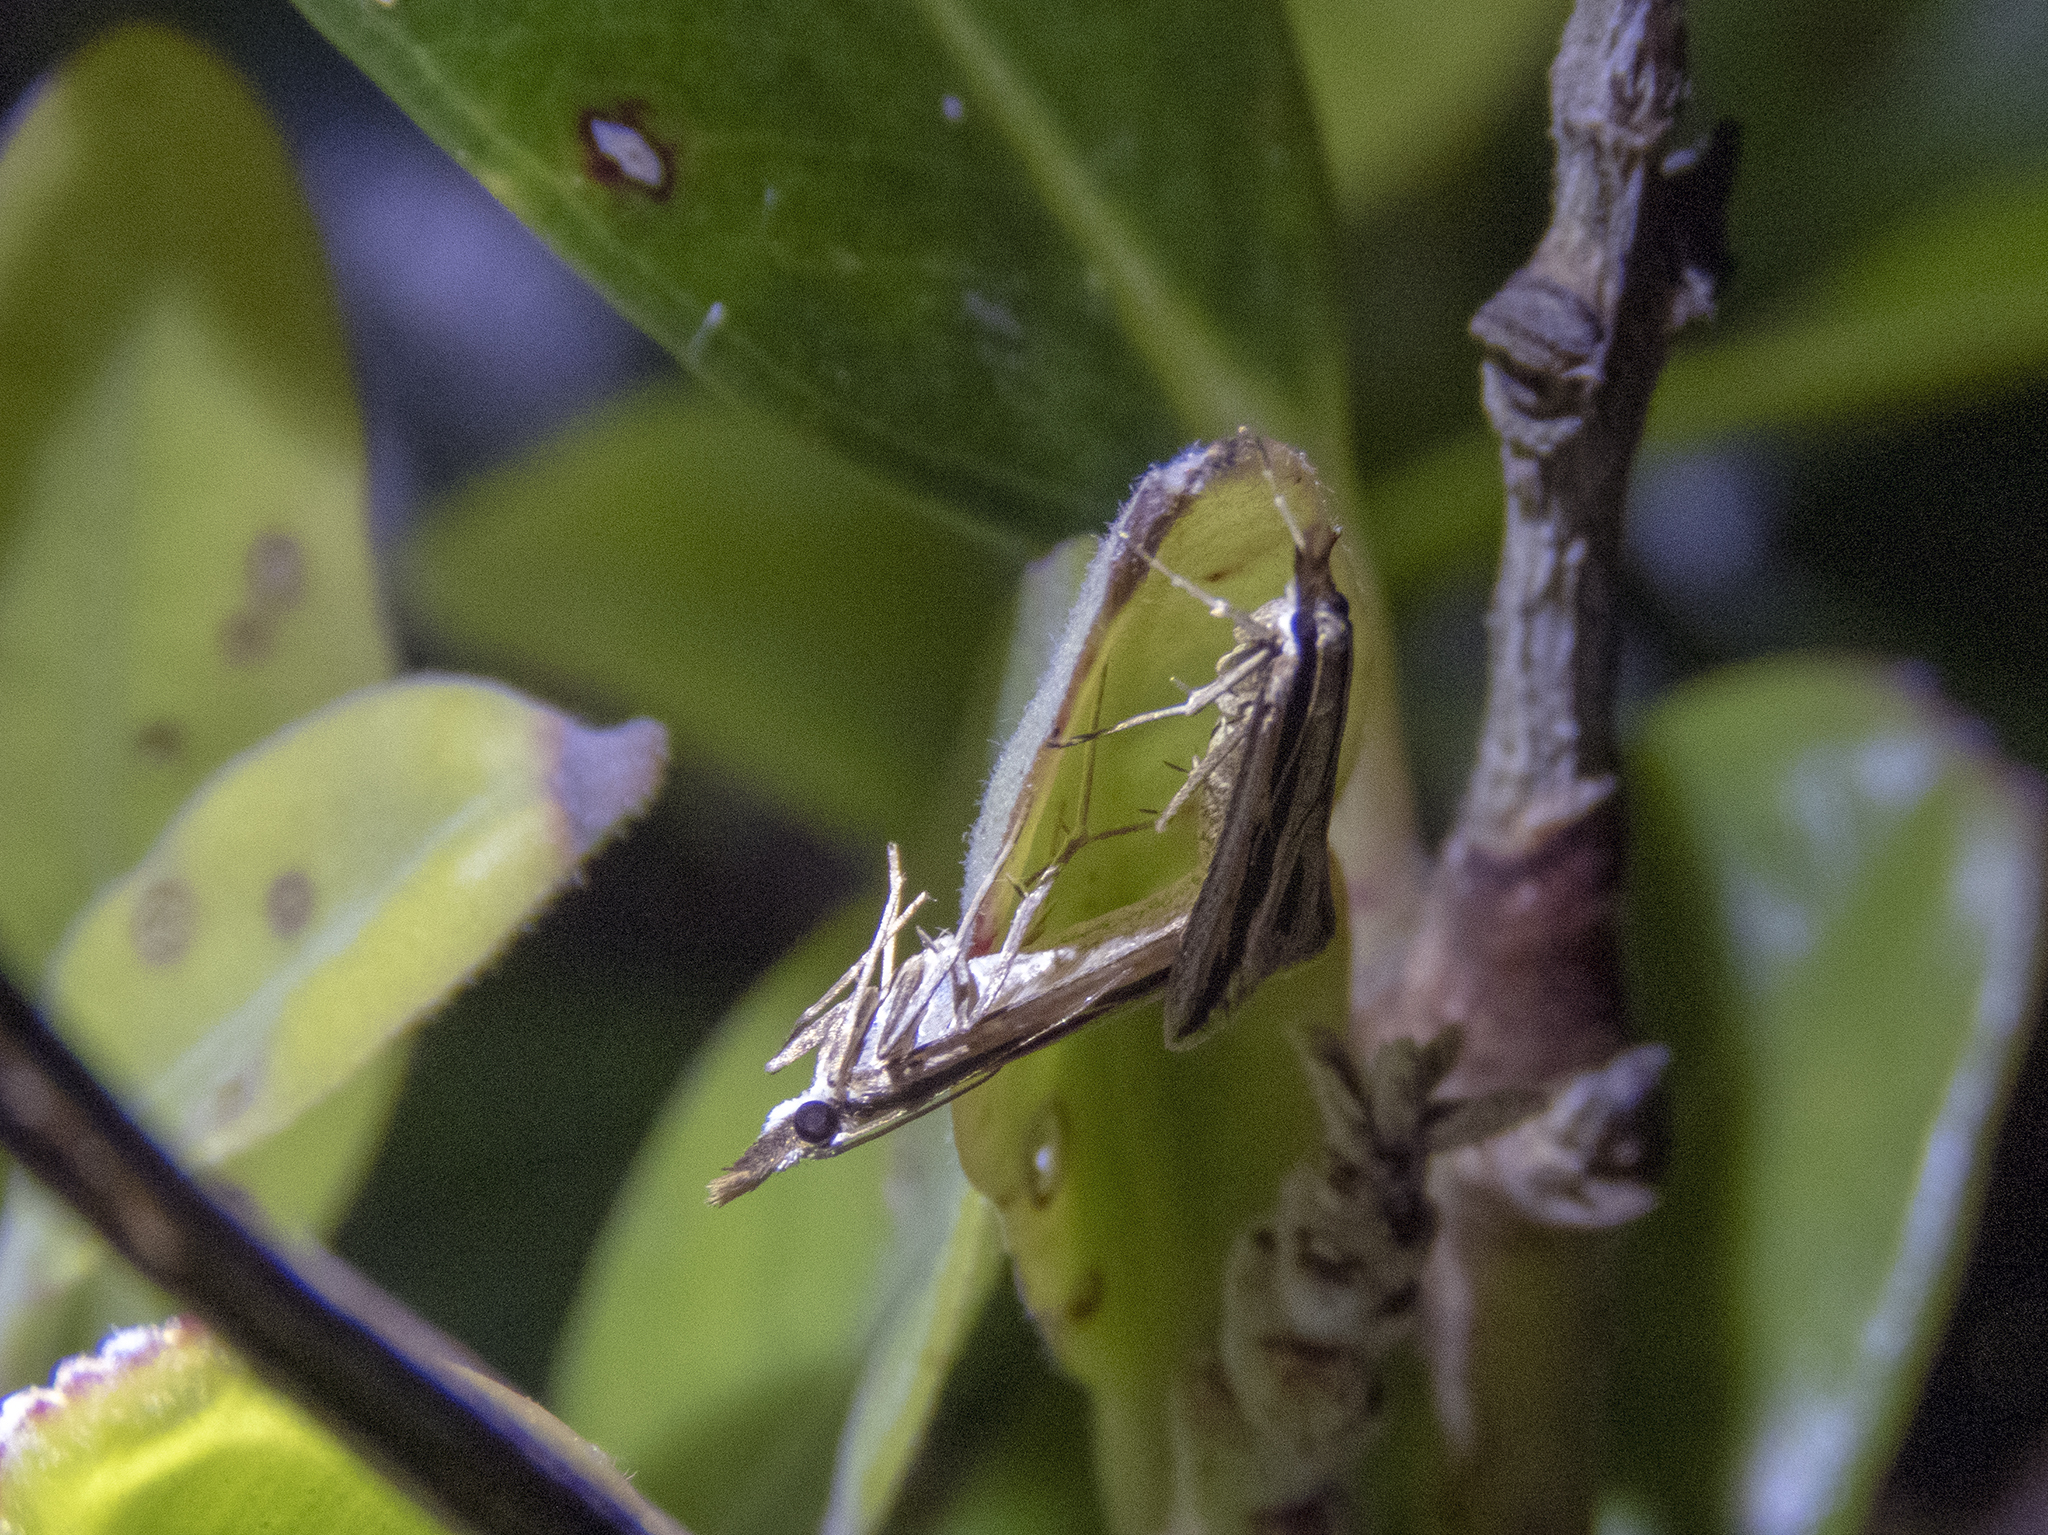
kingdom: Animalia
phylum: Arthropoda
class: Insecta
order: Lepidoptera
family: Crambidae
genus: Eudonia
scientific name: Eudonia trivirgata
